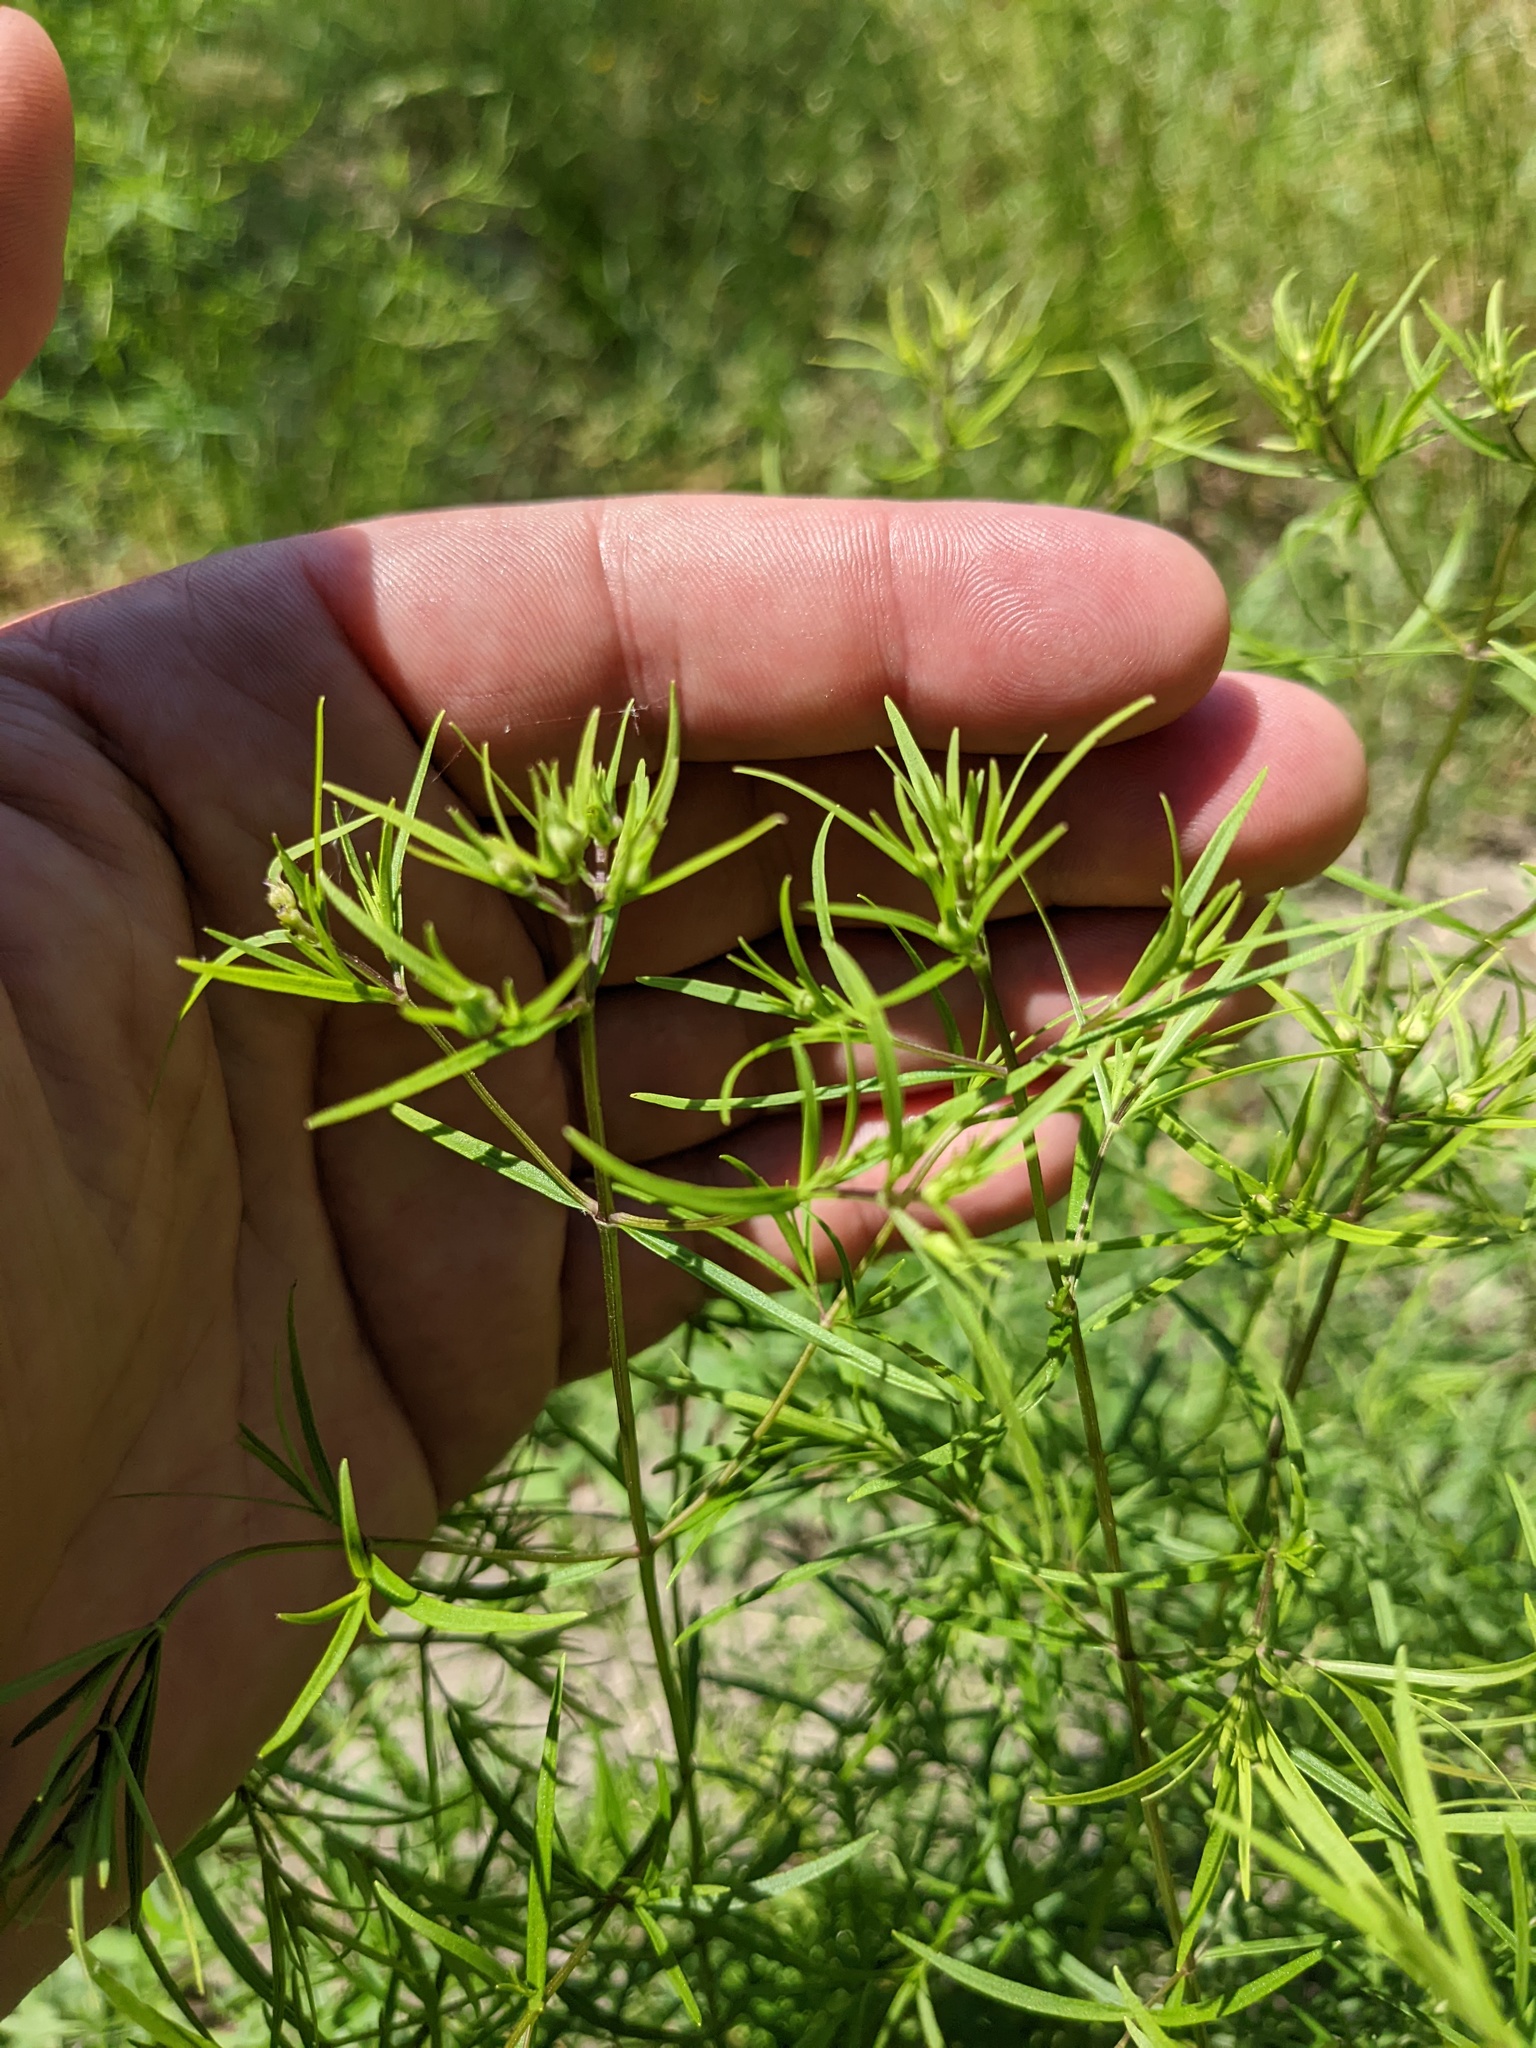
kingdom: Plantae
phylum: Tracheophyta
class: Magnoliopsida
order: Asterales
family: Asteraceae
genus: Coreopsis
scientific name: Coreopsis verticillata
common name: Whorled tickseed
